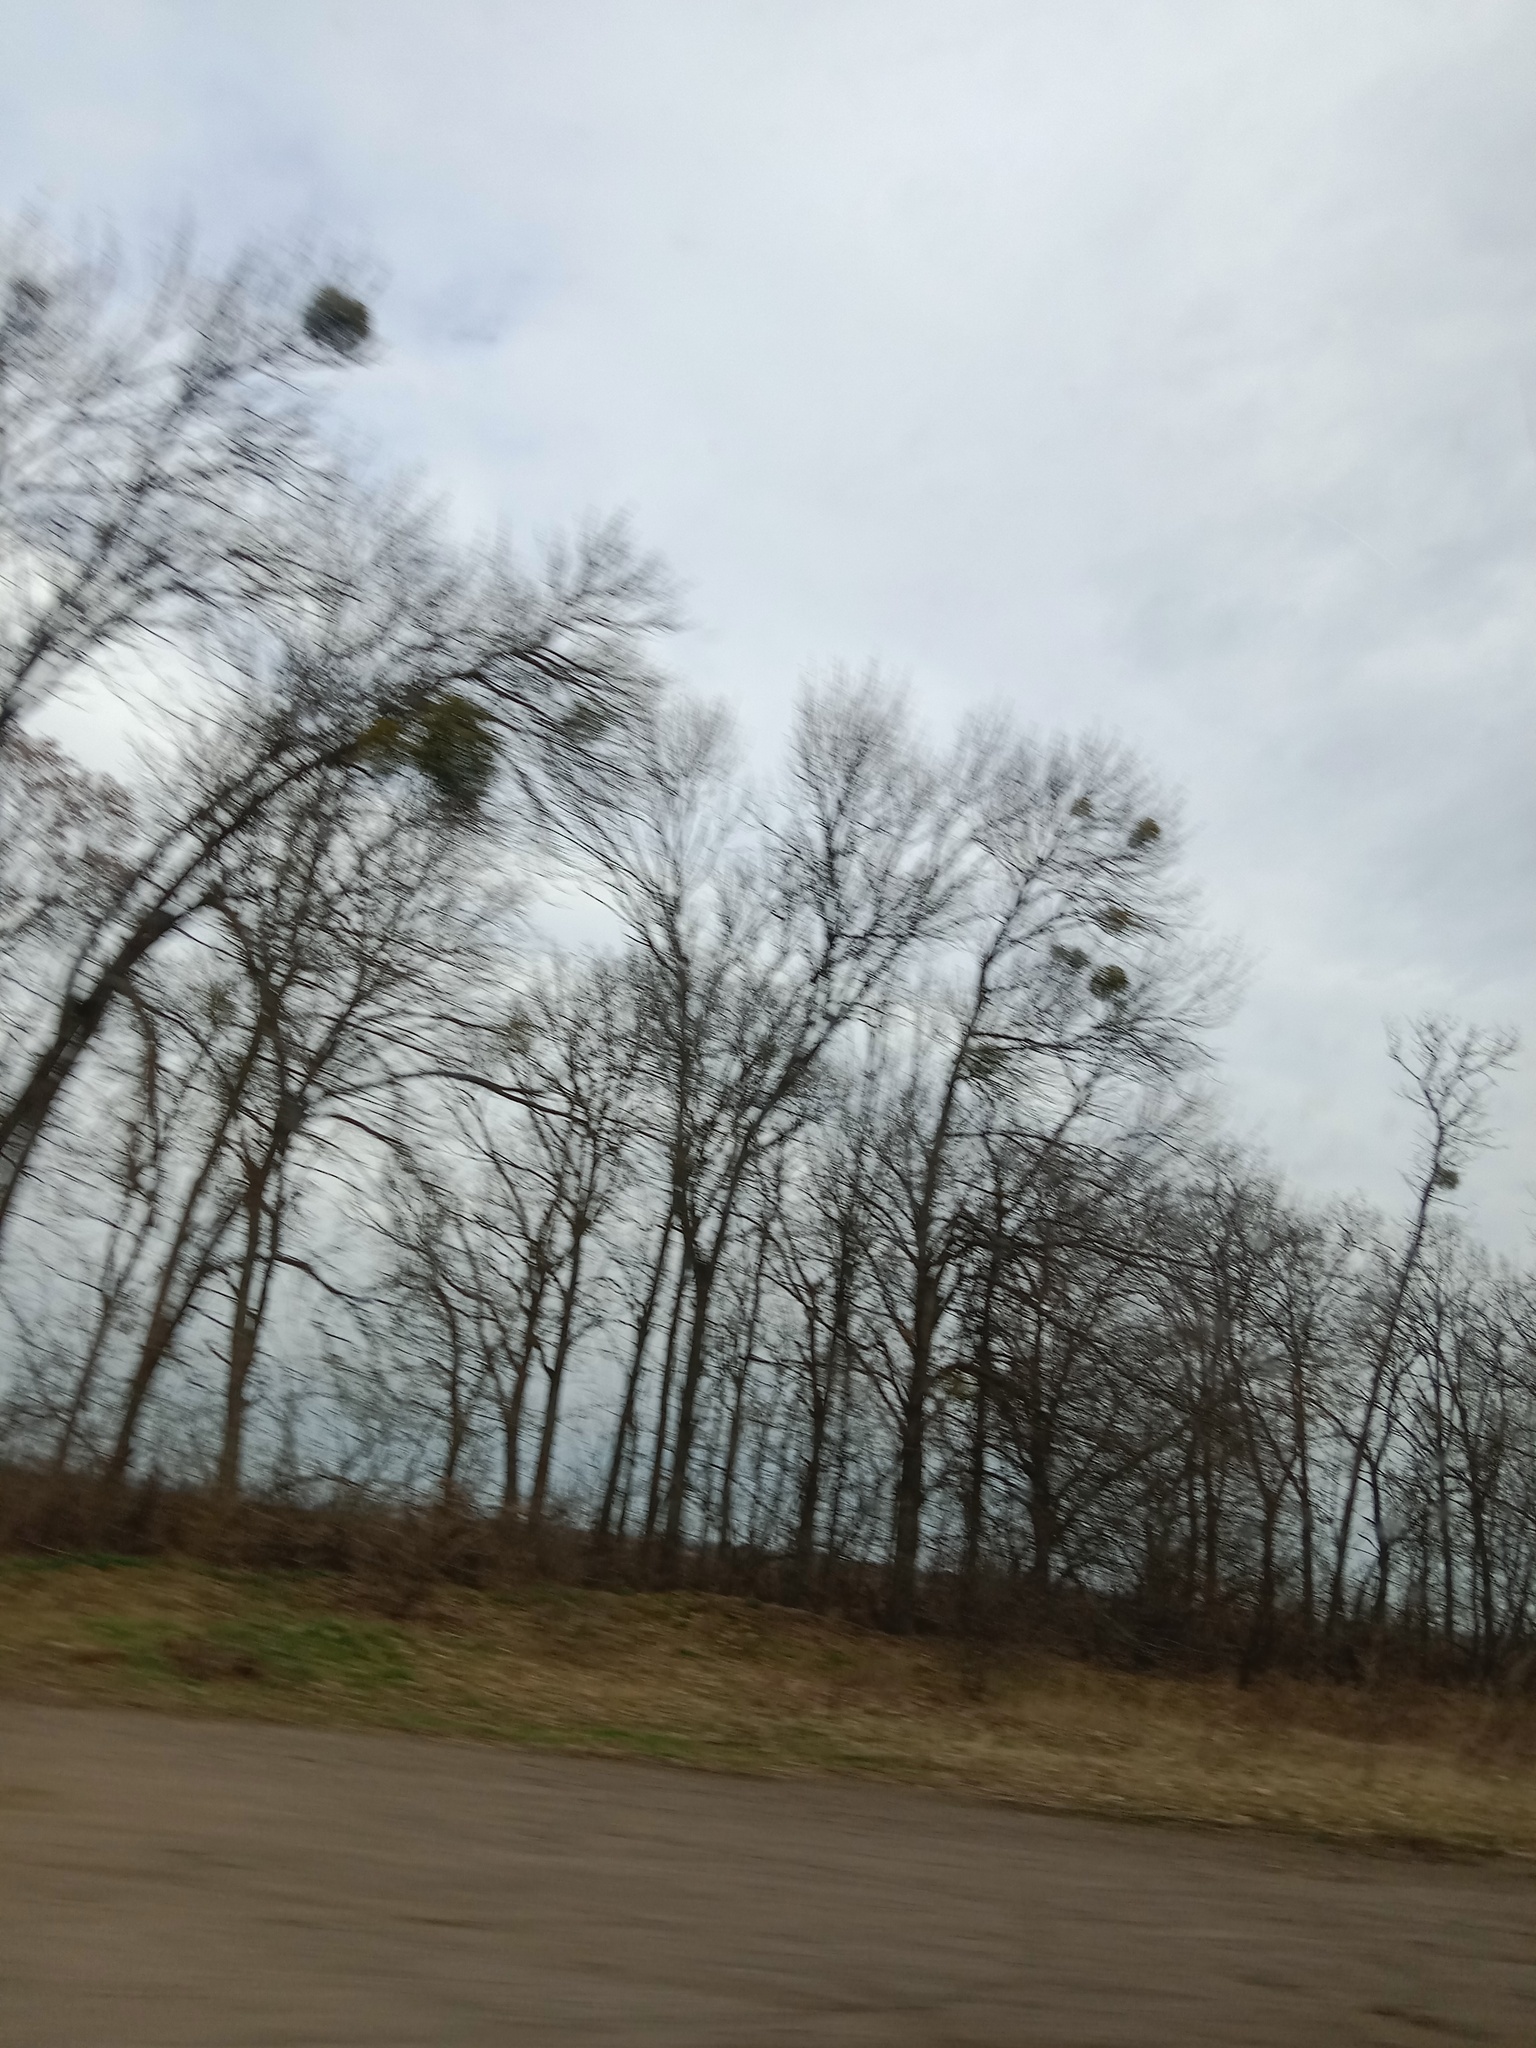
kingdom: Plantae
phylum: Tracheophyta
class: Magnoliopsida
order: Santalales
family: Viscaceae
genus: Viscum
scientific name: Viscum album
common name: Mistletoe
